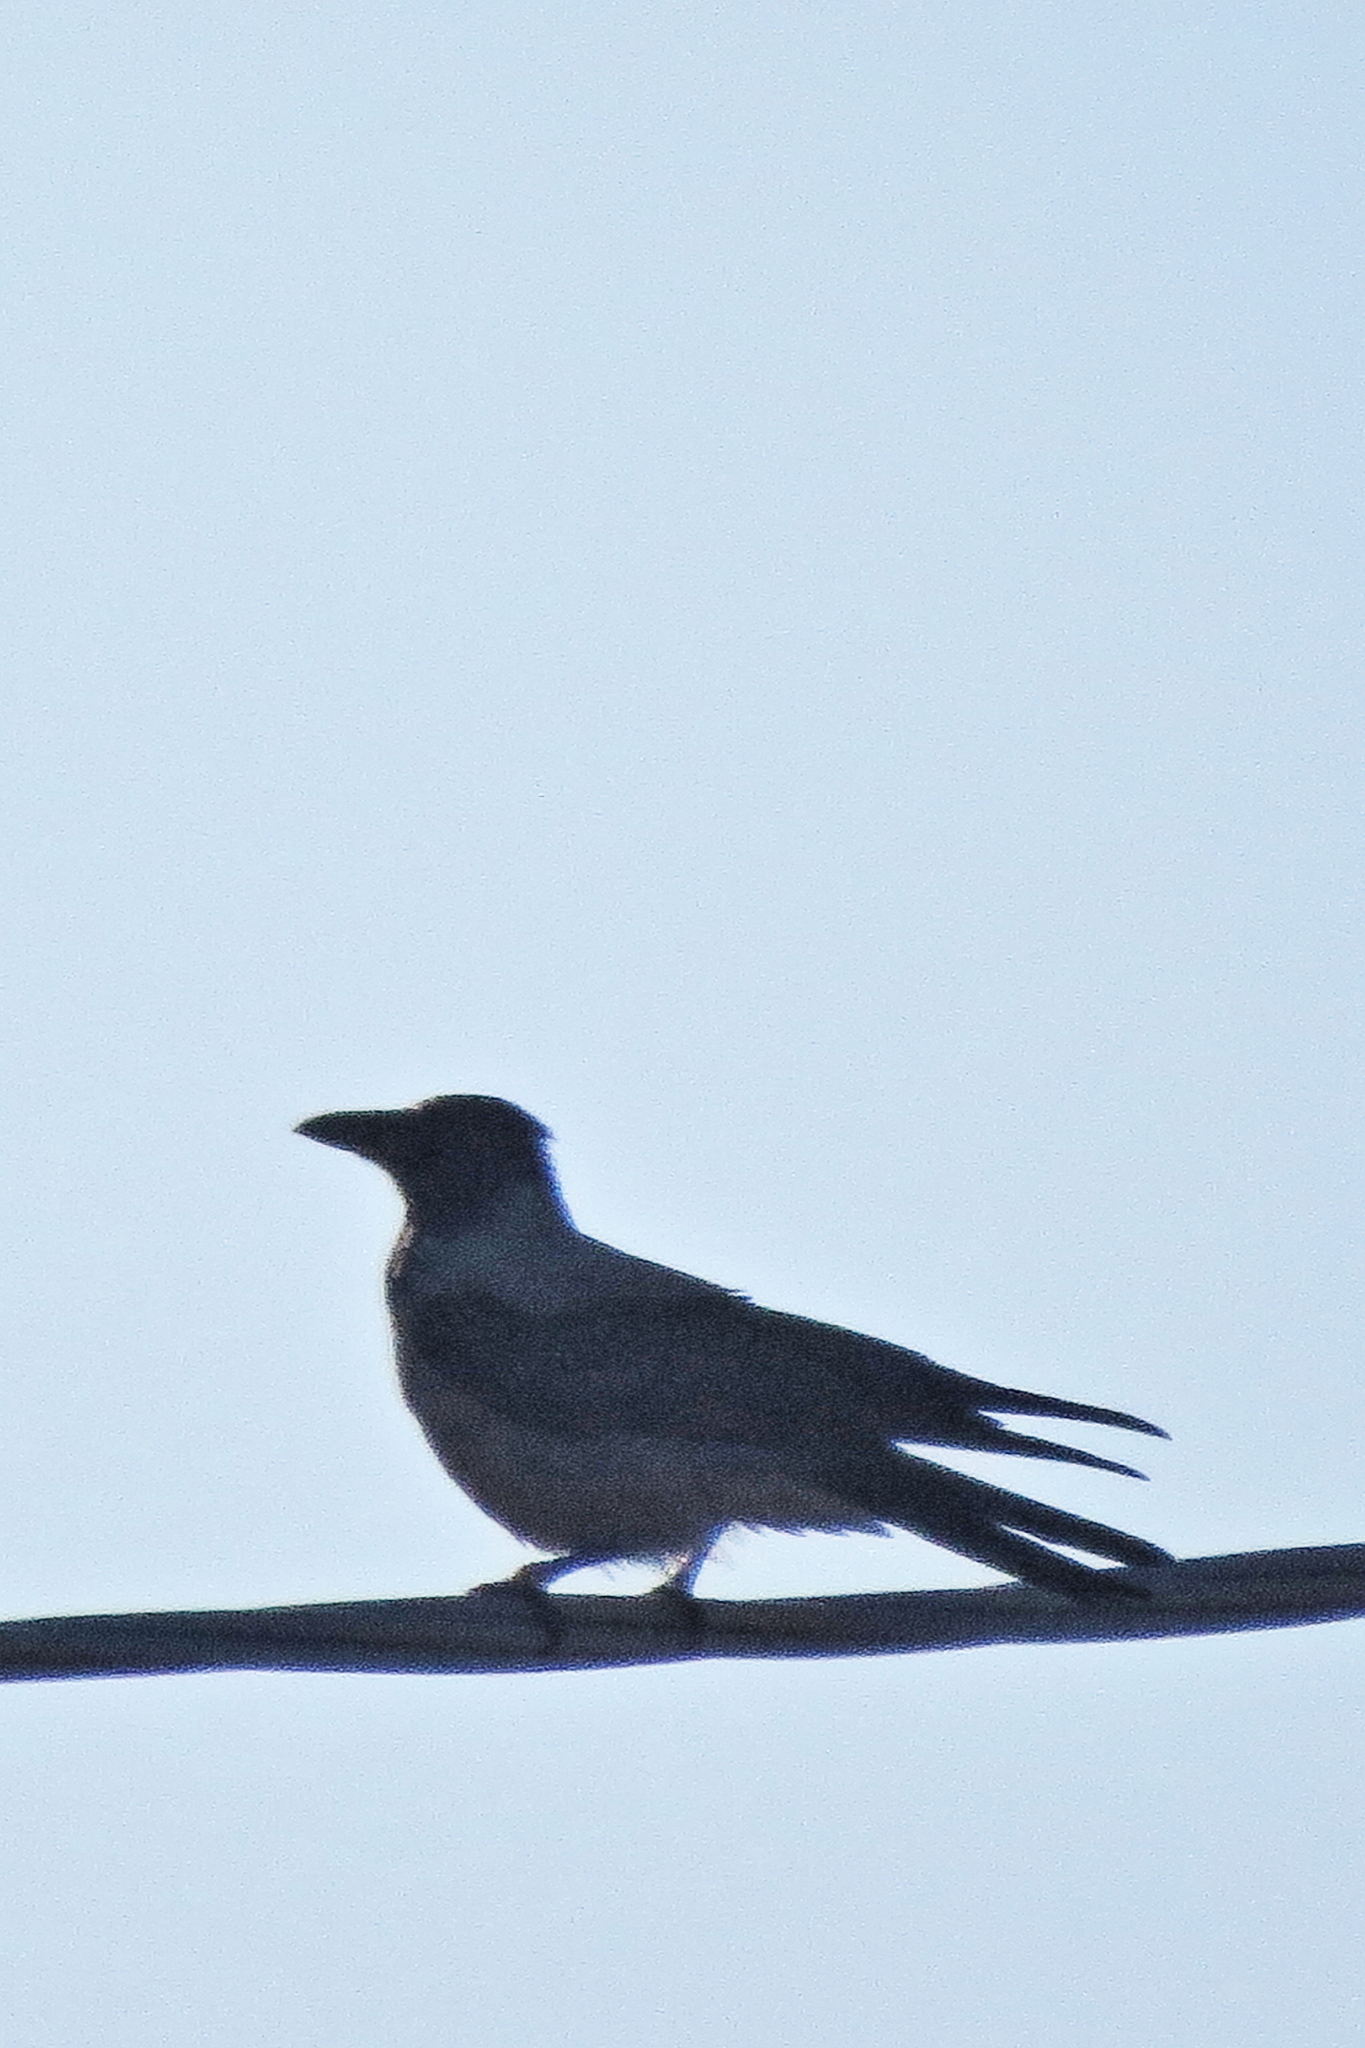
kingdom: Animalia
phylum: Chordata
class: Aves
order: Passeriformes
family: Corvidae
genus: Corvus
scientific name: Corvus cornix
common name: Hooded crow
